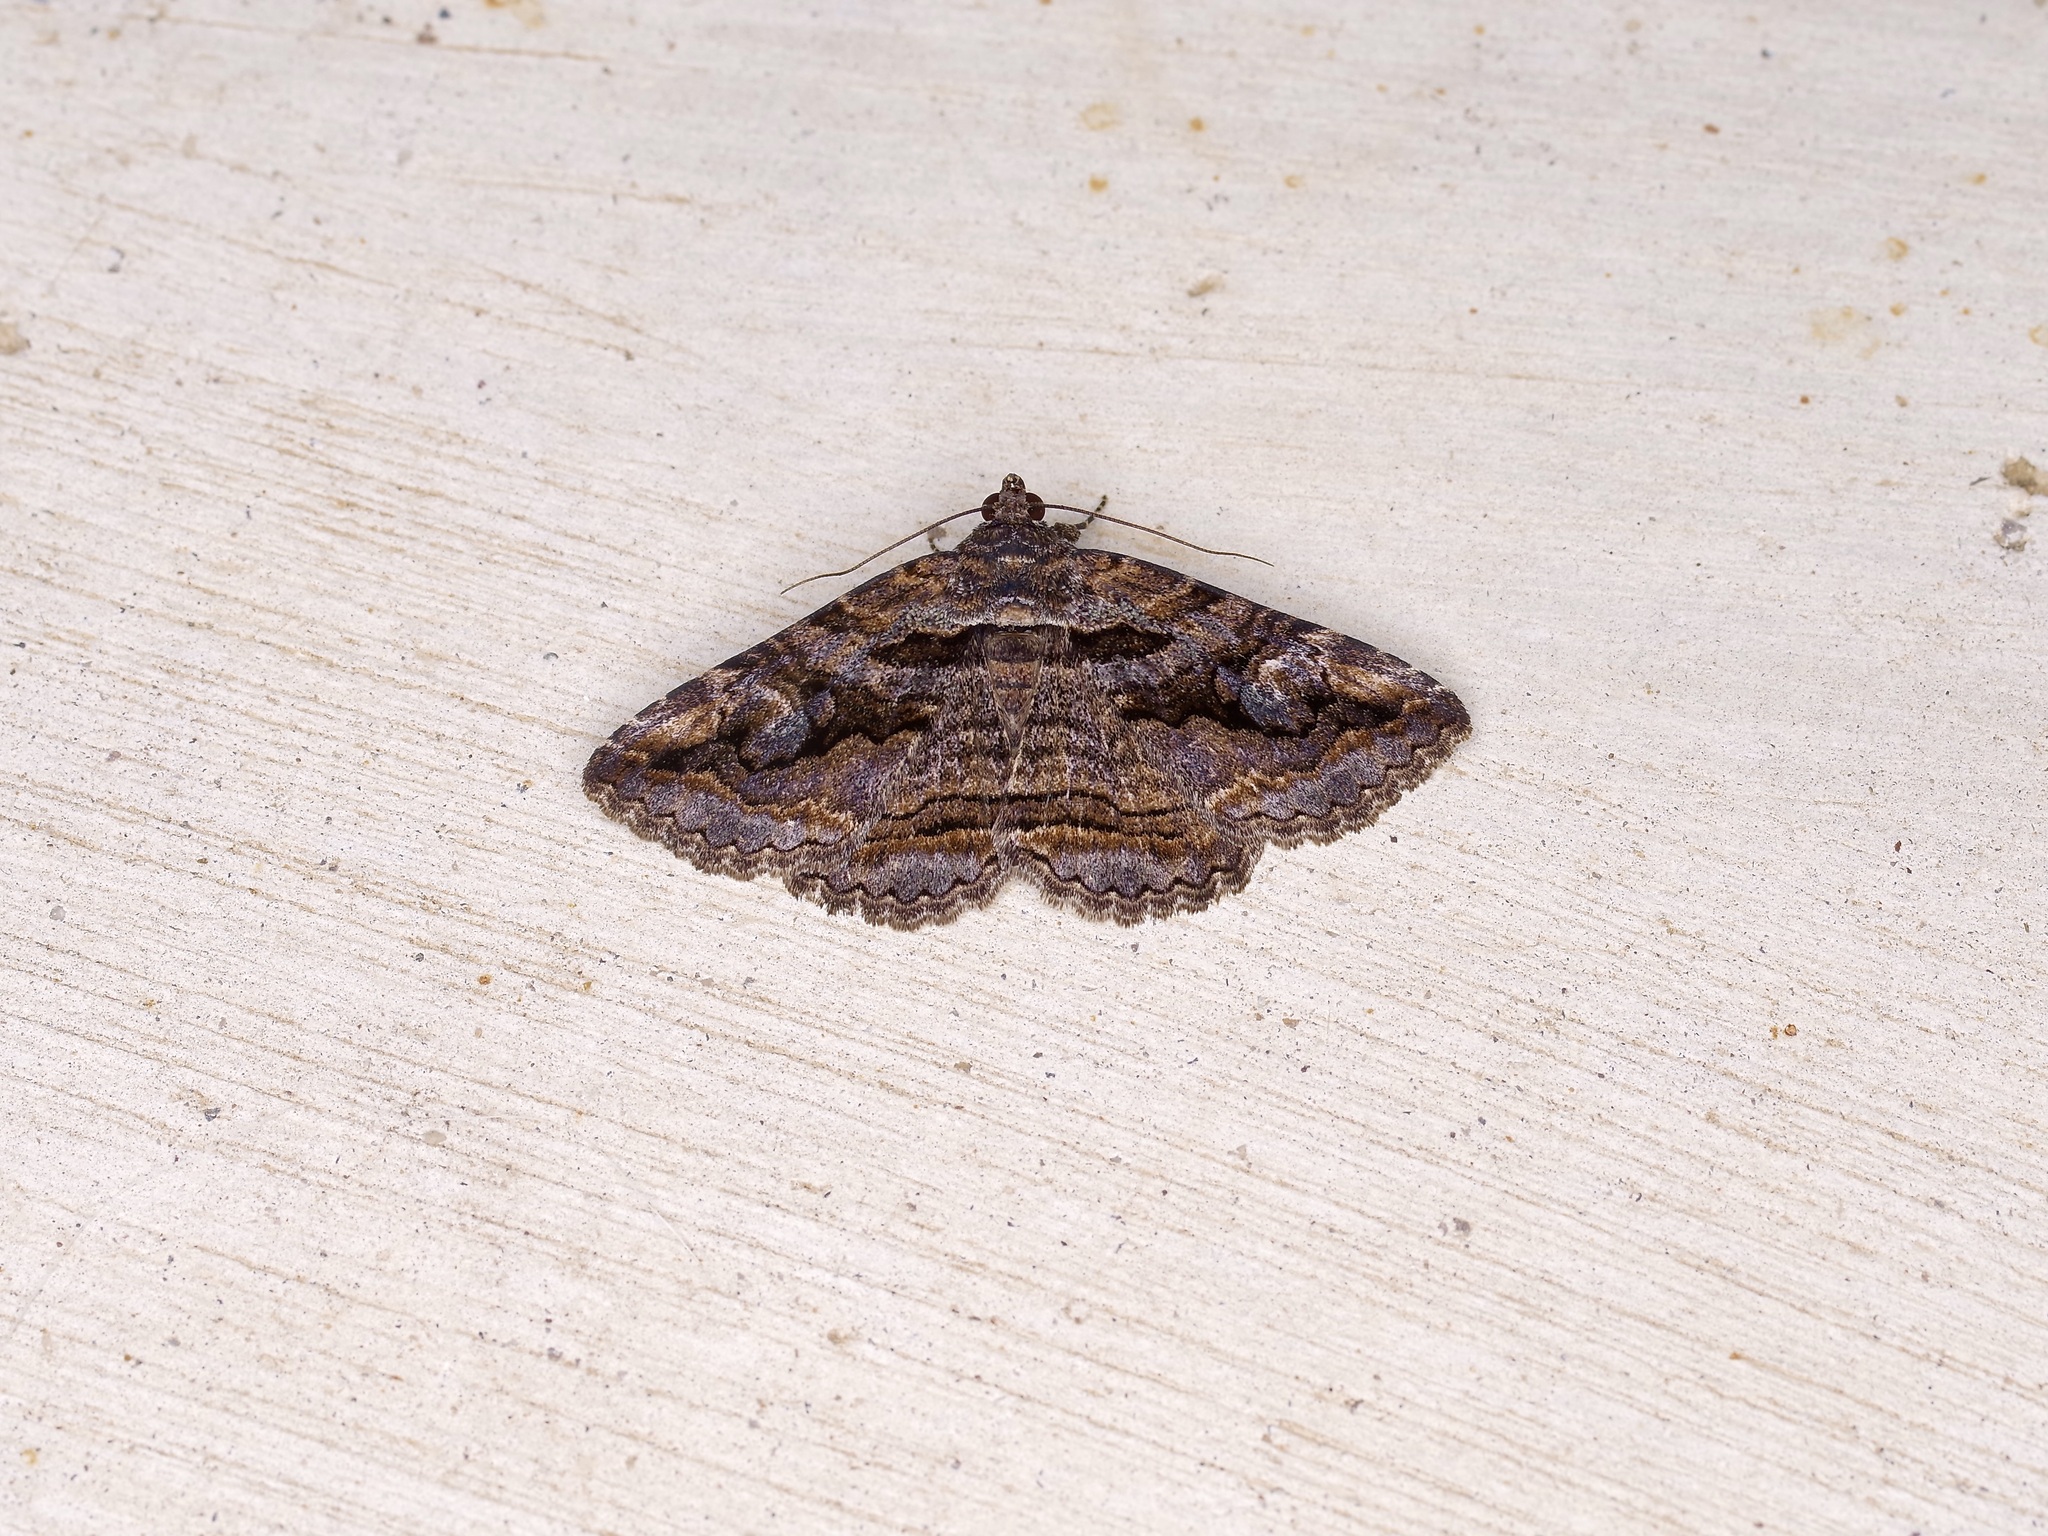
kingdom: Animalia
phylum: Arthropoda
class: Insecta
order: Lepidoptera
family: Erebidae
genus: Zaleops
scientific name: Zaleops umbrina
